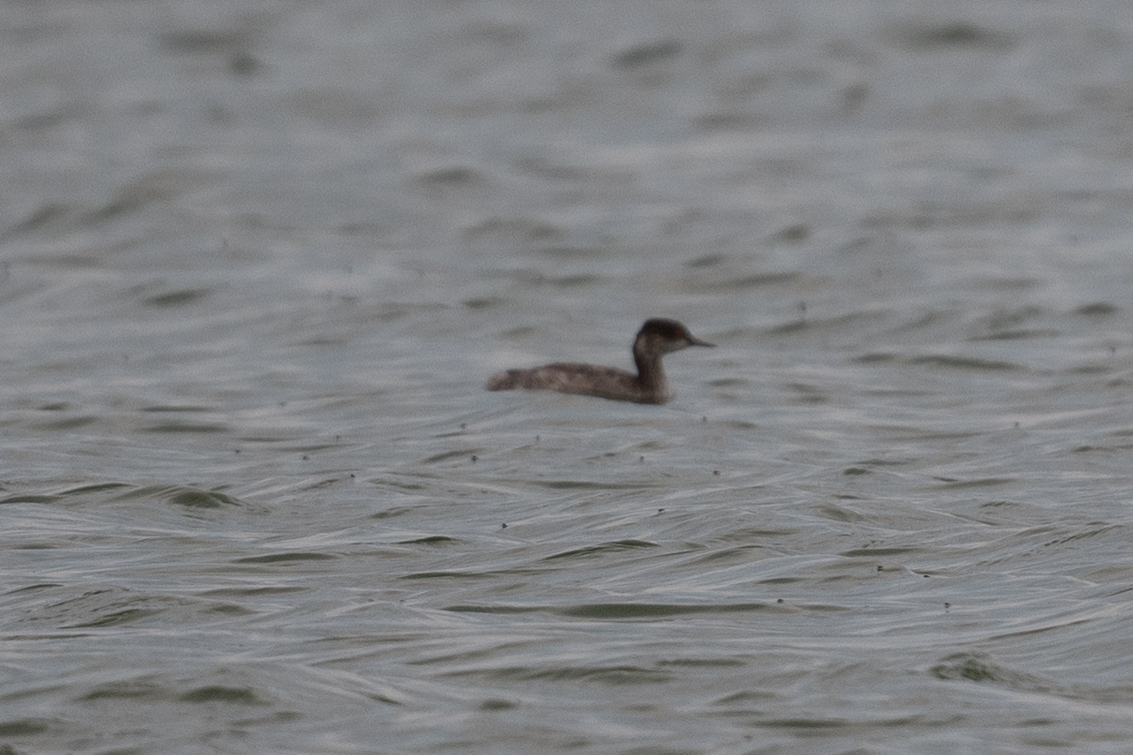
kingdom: Animalia
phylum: Chordata
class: Aves
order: Podicipediformes
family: Podicipedidae
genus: Podiceps
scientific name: Podiceps nigricollis
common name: Black-necked grebe
